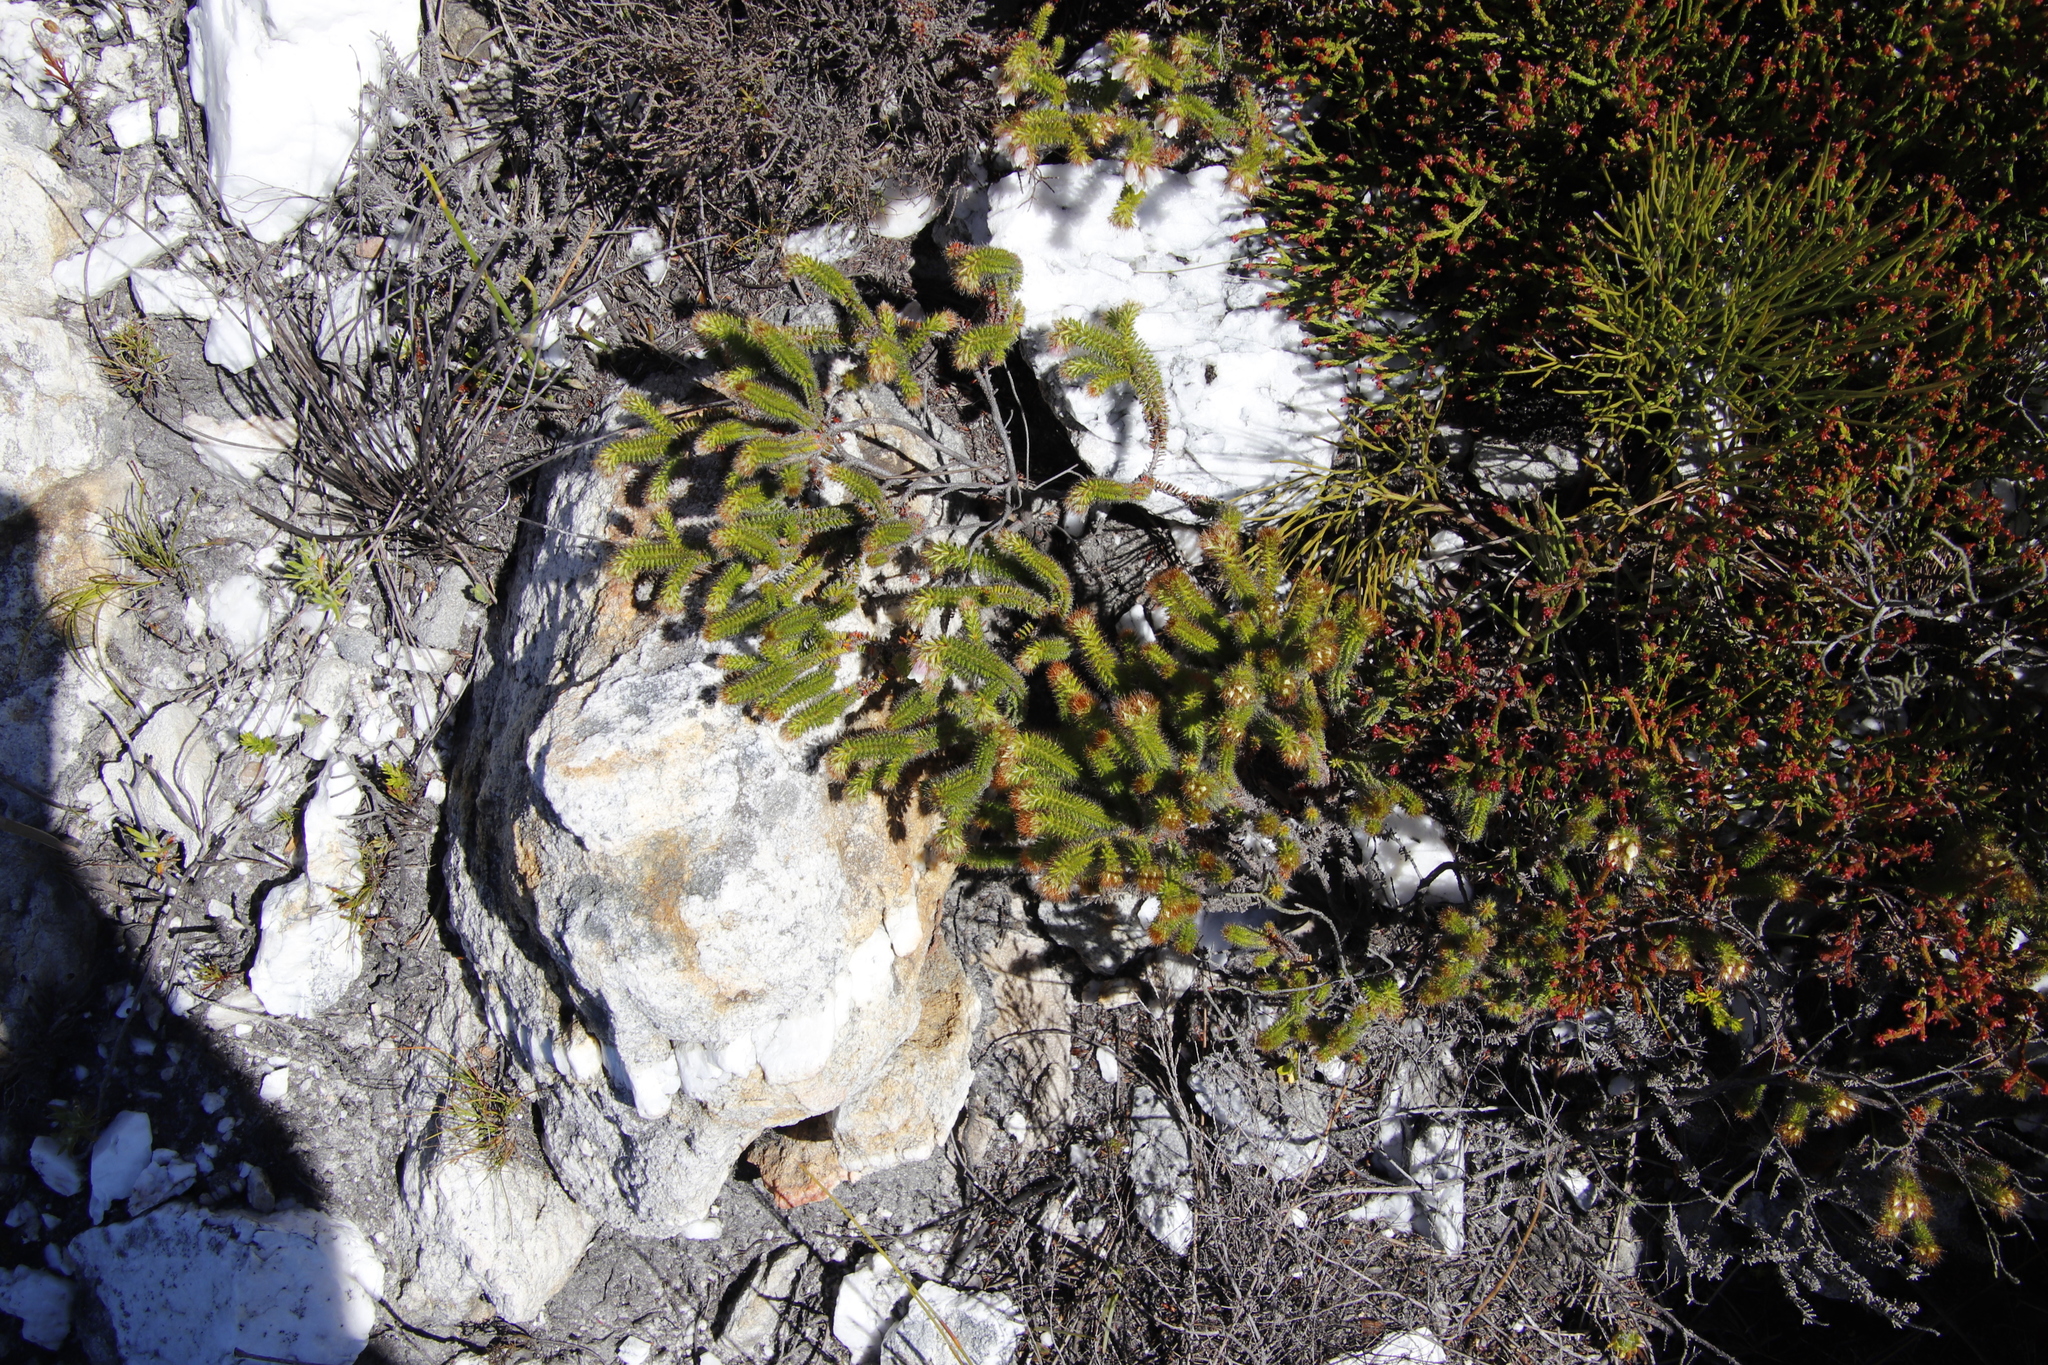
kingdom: Plantae
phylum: Tracheophyta
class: Magnoliopsida
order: Ericales
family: Ericaceae
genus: Erica
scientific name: Erica cygnea
